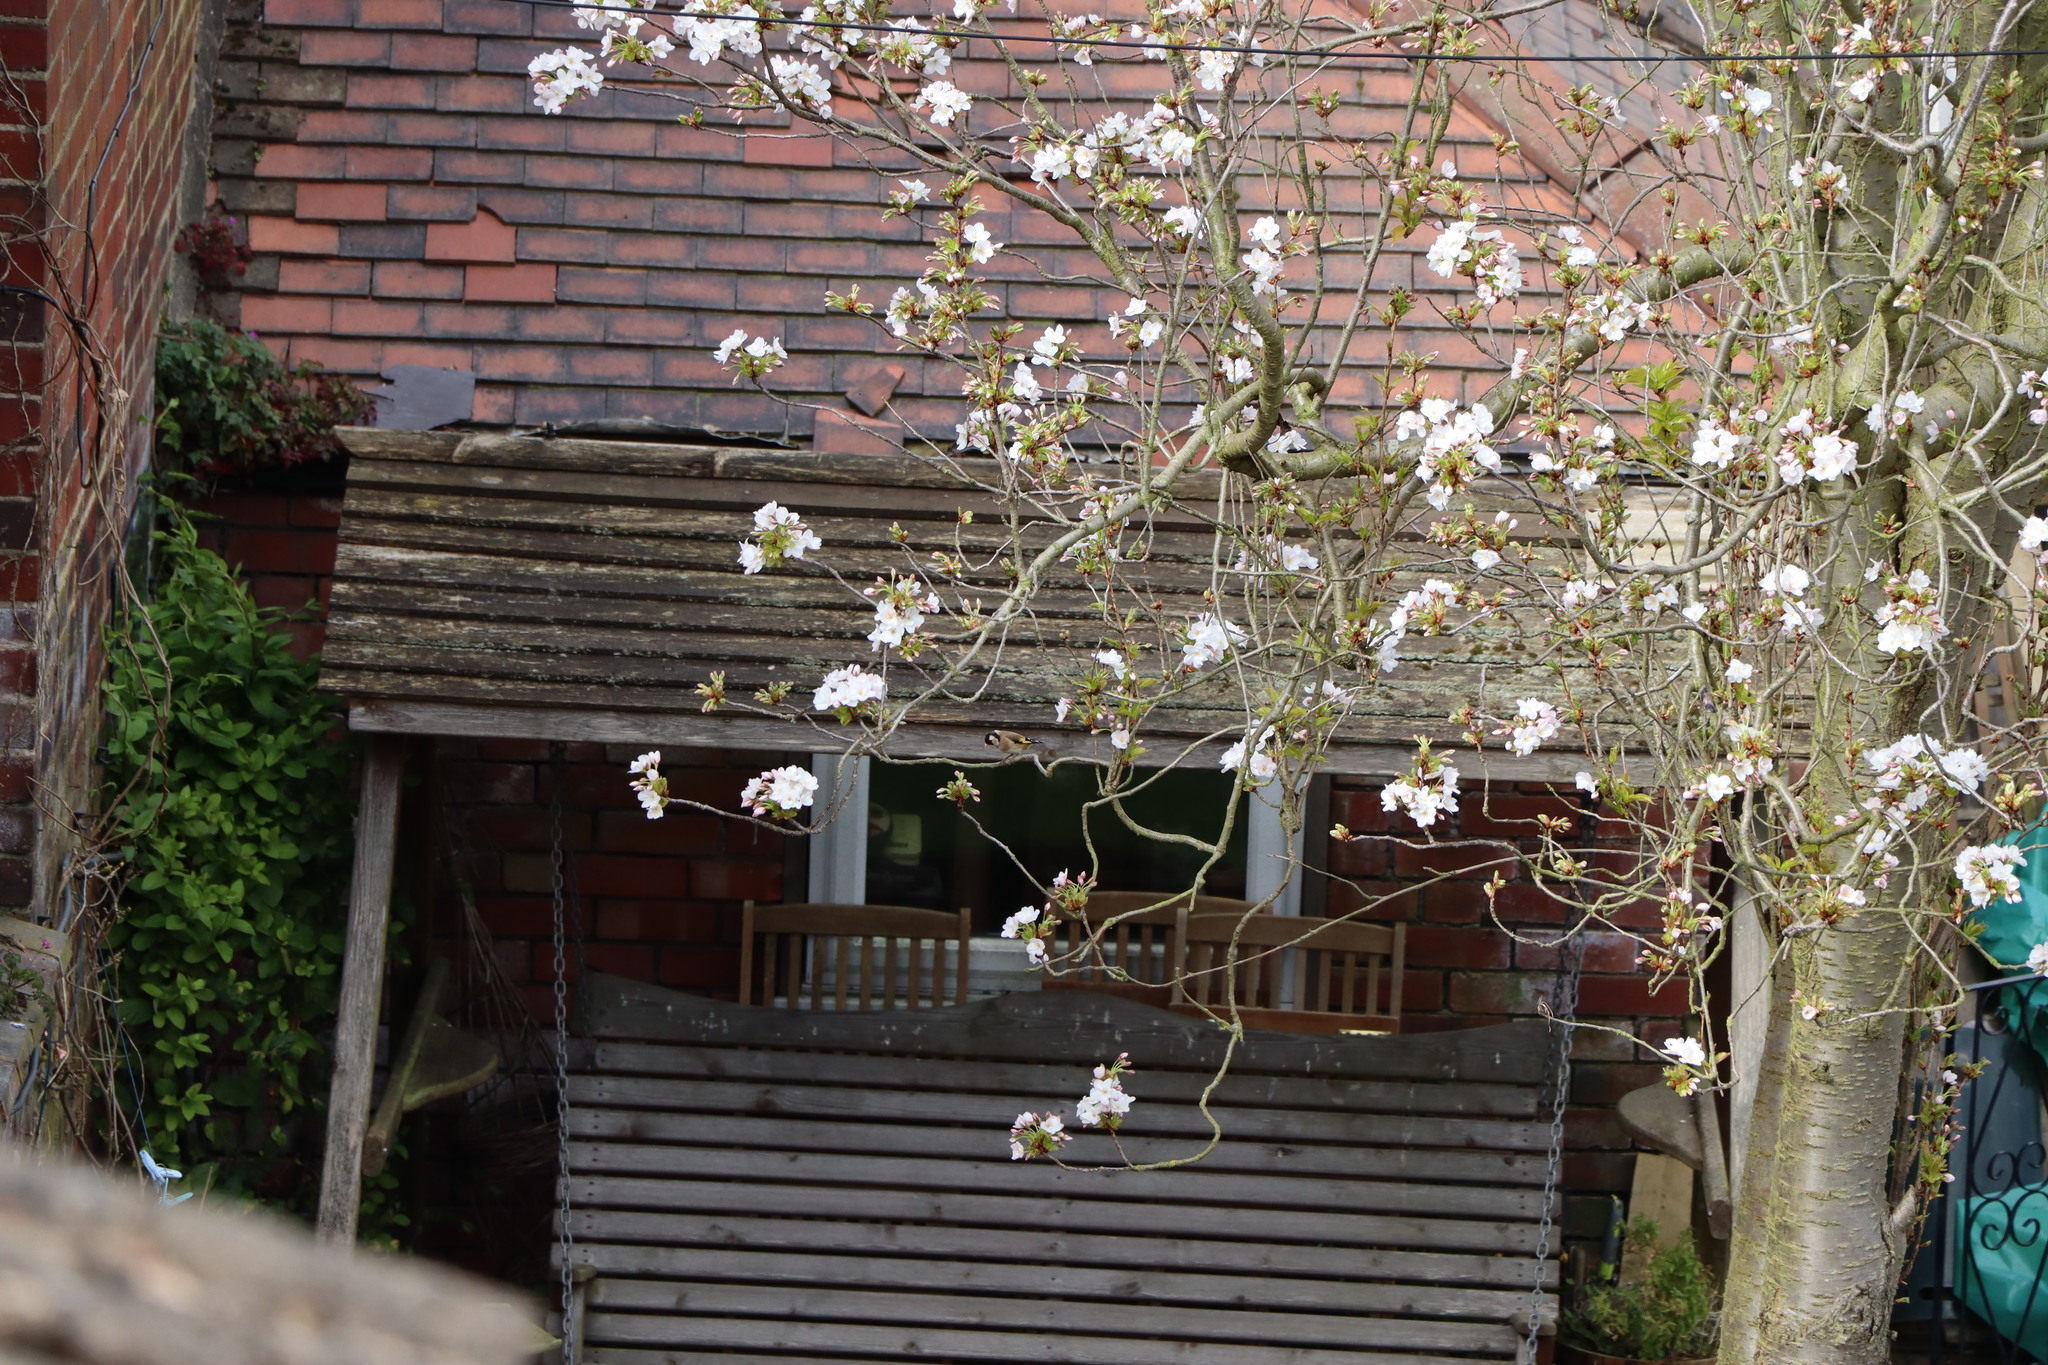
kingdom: Animalia
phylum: Chordata
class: Aves
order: Passeriformes
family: Fringillidae
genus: Carduelis
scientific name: Carduelis carduelis
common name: European goldfinch
